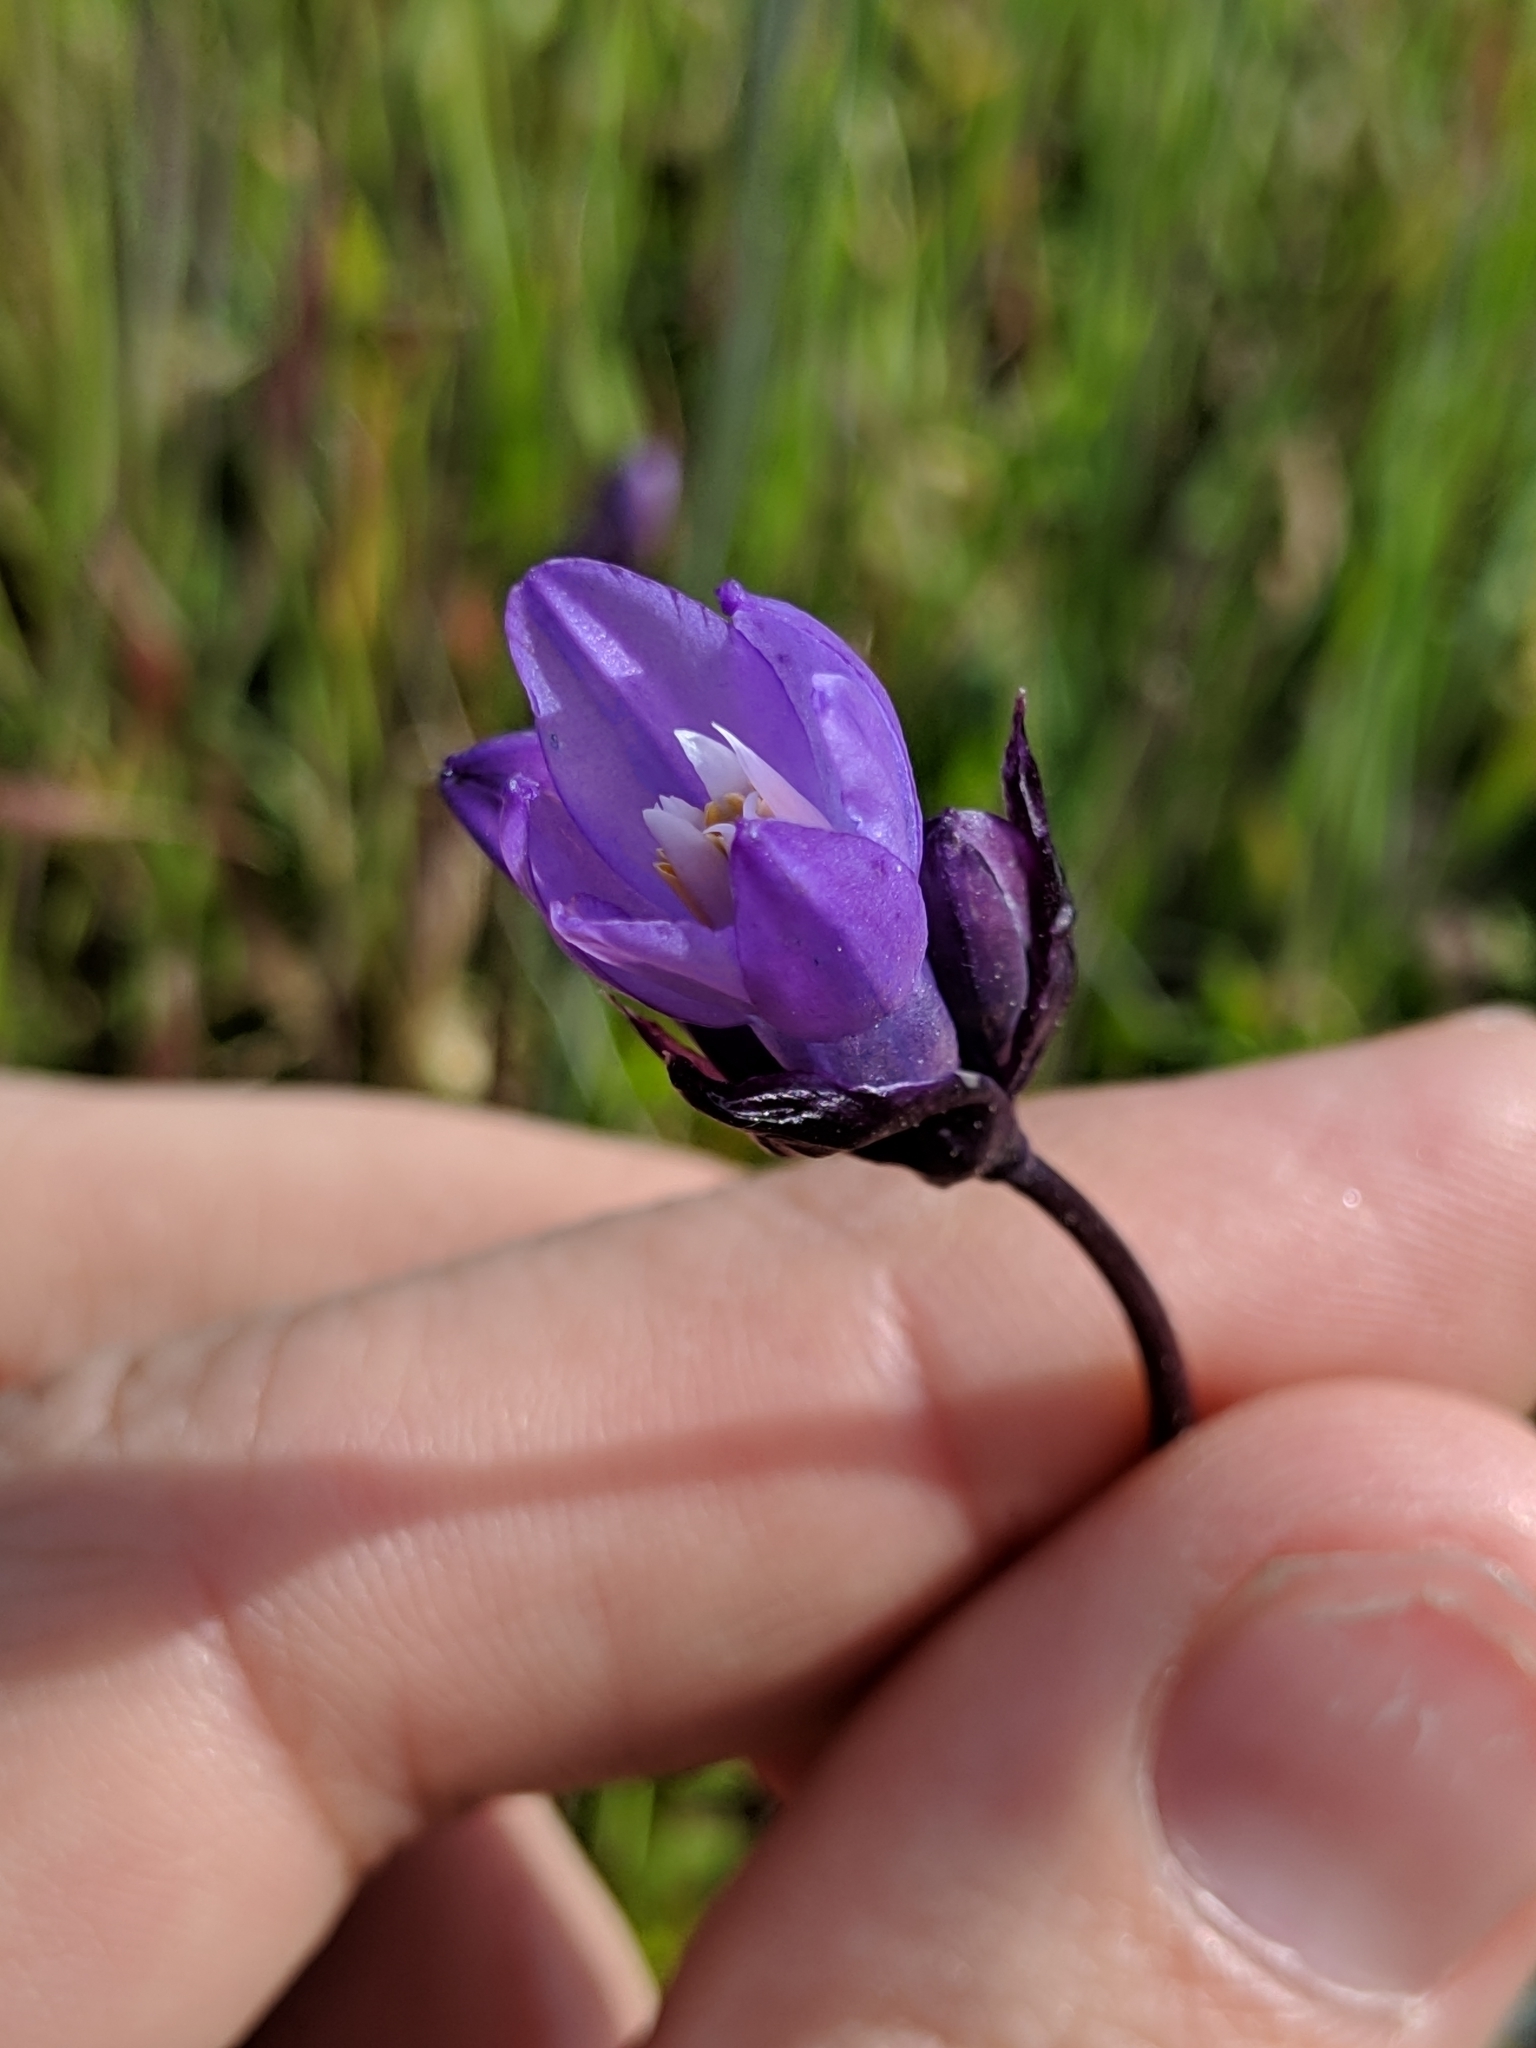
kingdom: Plantae
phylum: Tracheophyta
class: Liliopsida
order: Asparagales
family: Asparagaceae
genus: Dipterostemon
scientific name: Dipterostemon capitatus
